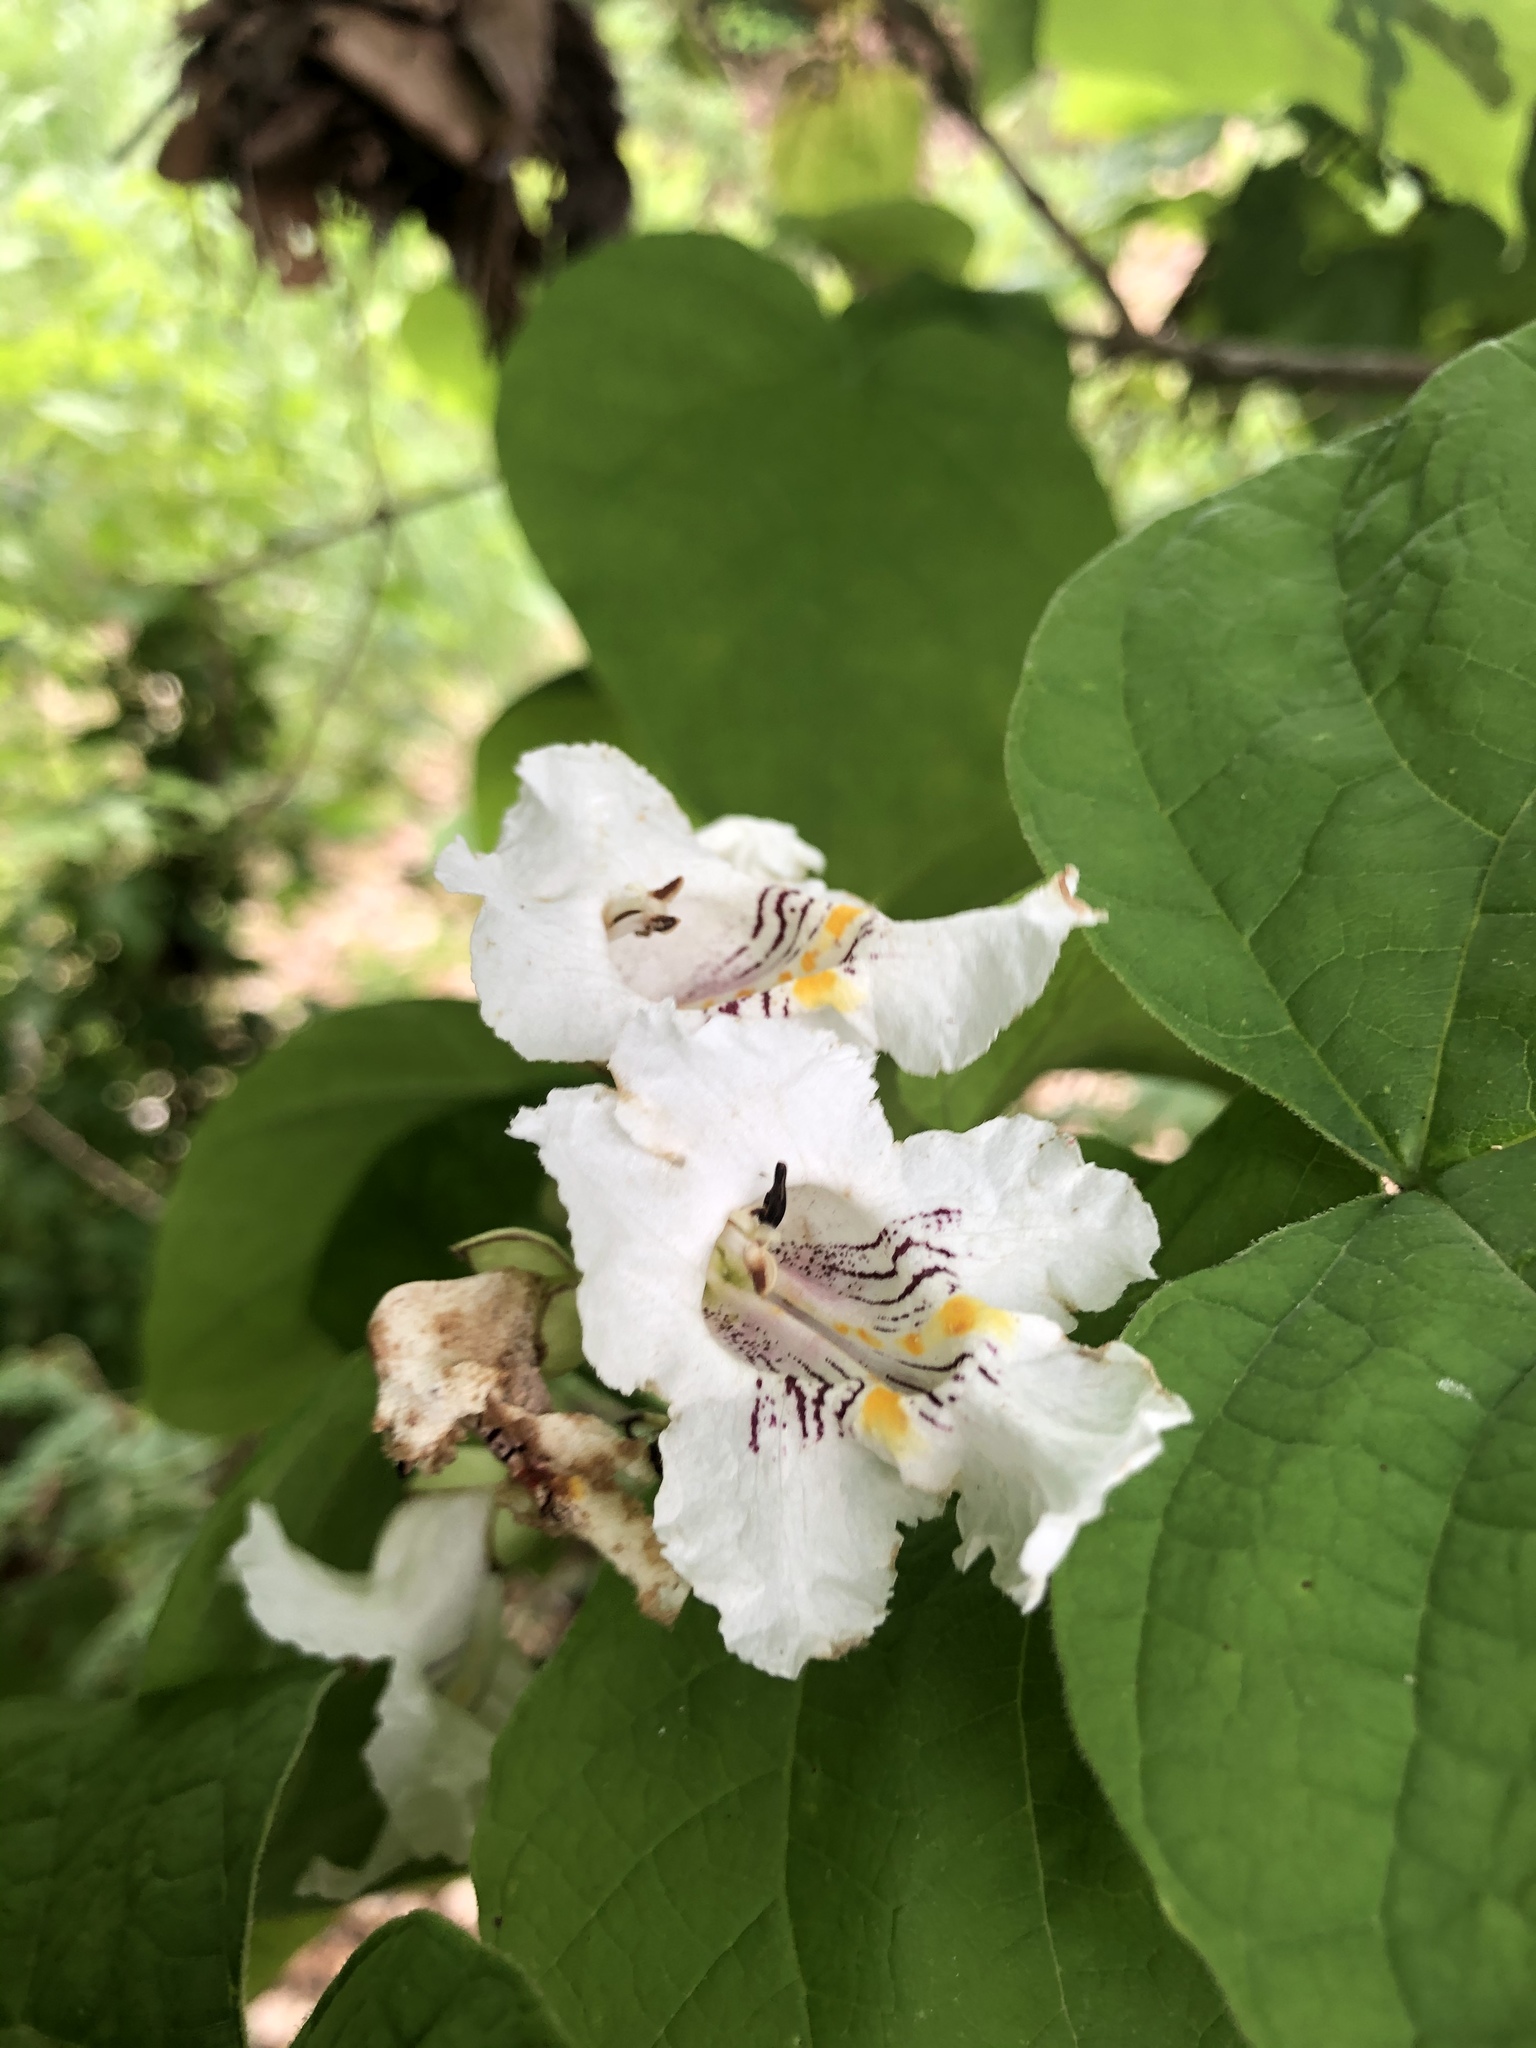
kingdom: Plantae
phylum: Tracheophyta
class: Magnoliopsida
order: Lamiales
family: Bignoniaceae
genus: Catalpa
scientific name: Catalpa speciosa
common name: Northern catalpa
